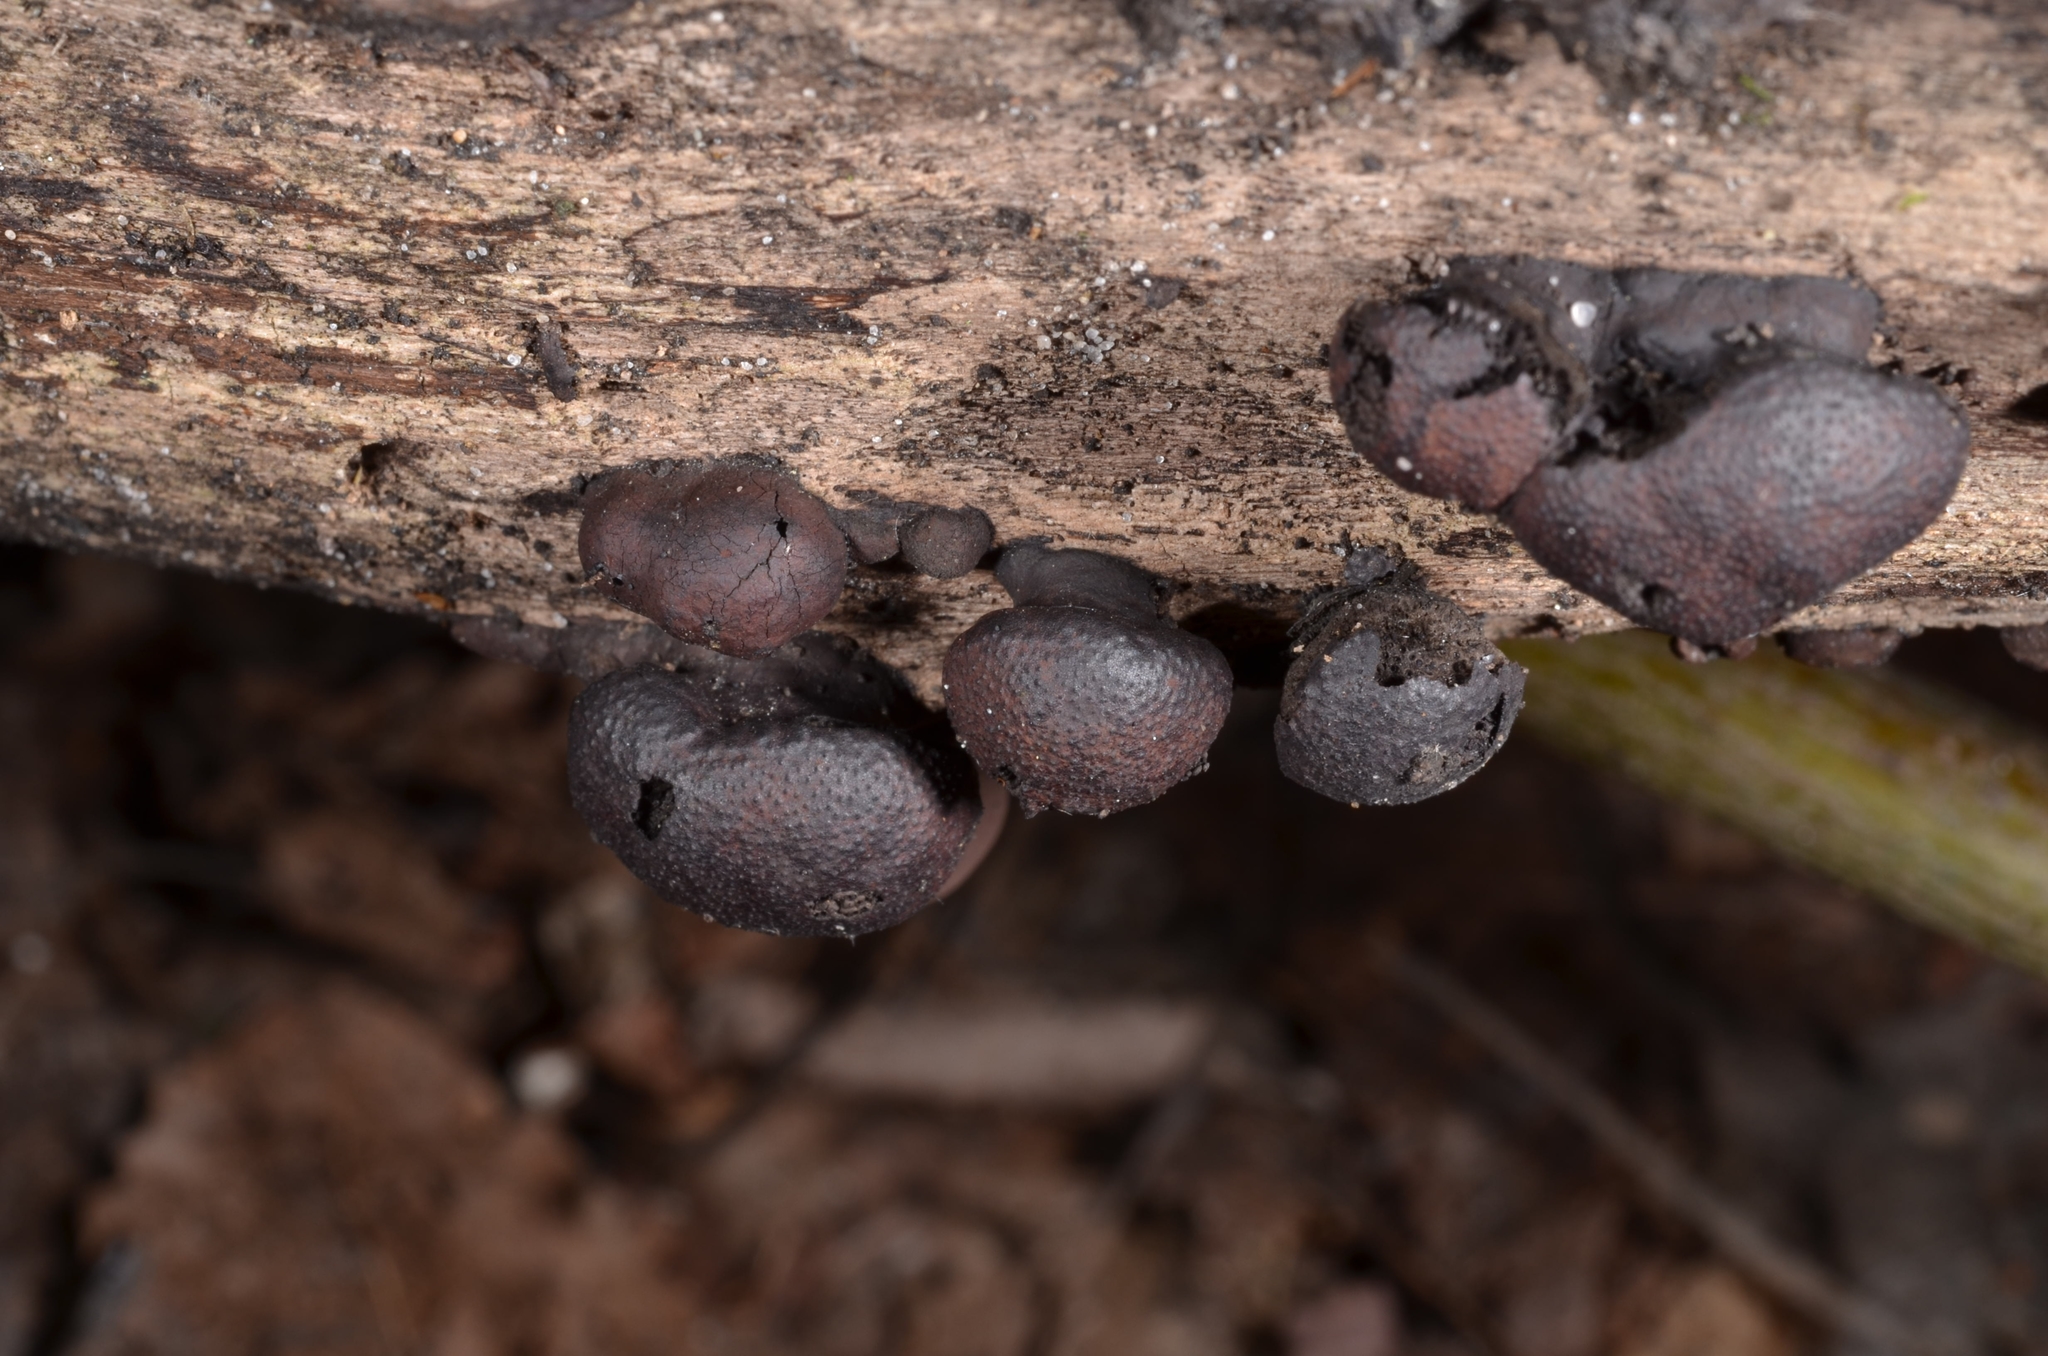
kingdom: Fungi
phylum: Ascomycota
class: Sordariomycetes
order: Xylariales
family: Hypoxylaceae
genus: Daldinia
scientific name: Daldinia childiae
